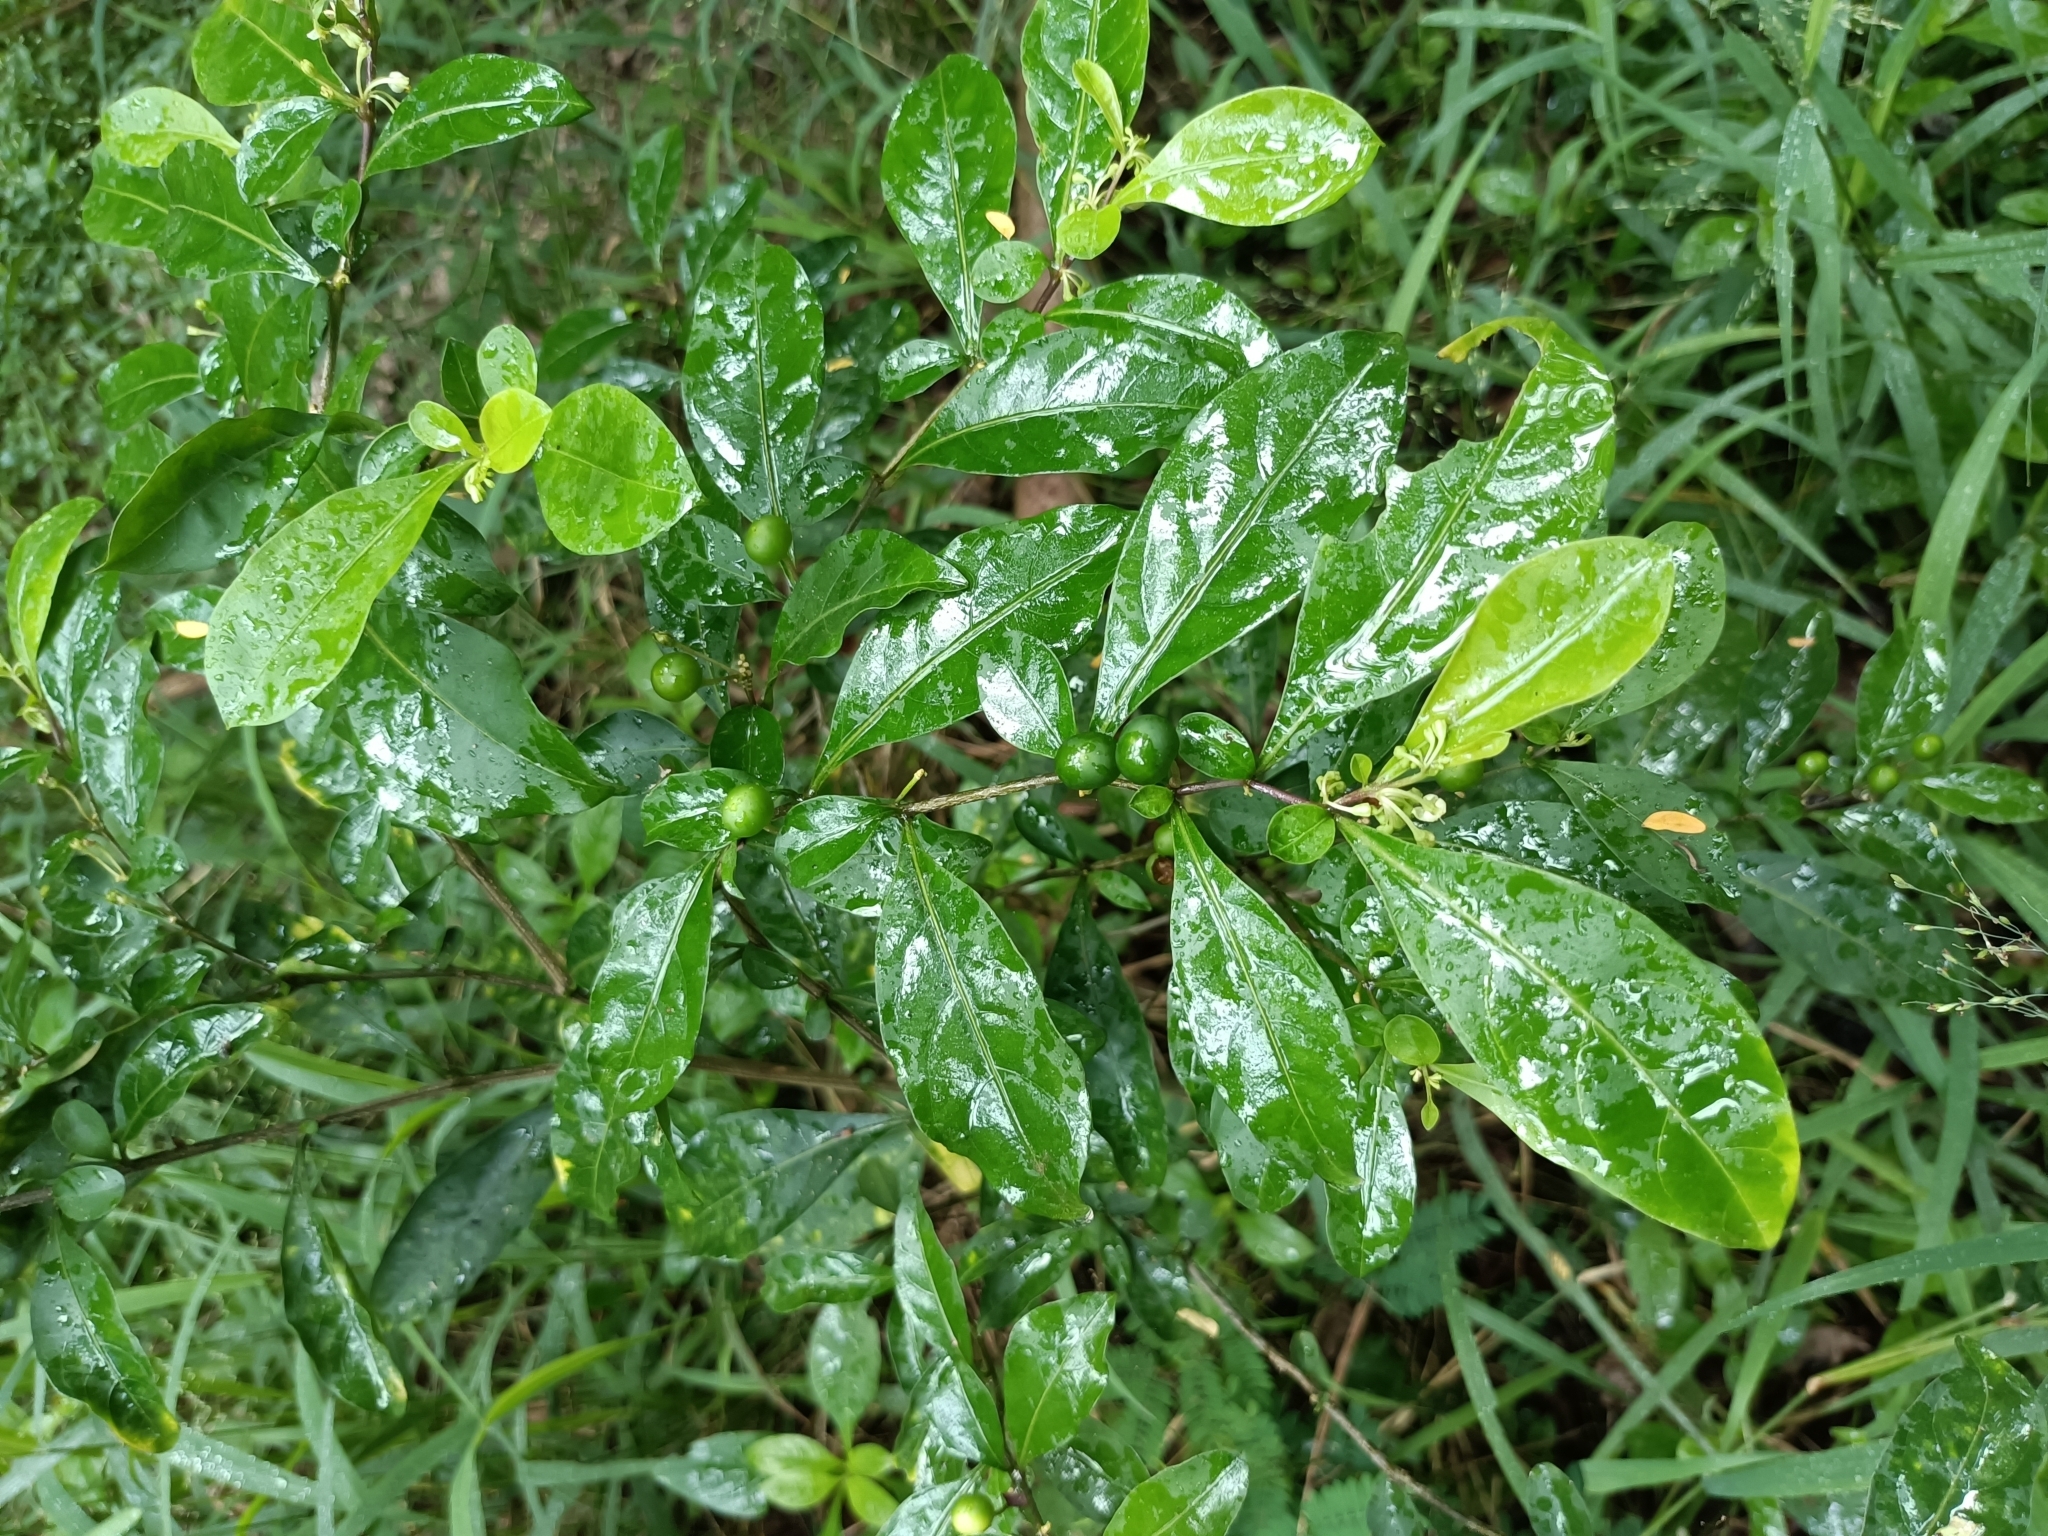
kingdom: Plantae
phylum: Tracheophyta
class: Magnoliopsida
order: Solanales
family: Solanaceae
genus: Solanum
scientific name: Solanum diphyllum
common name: Twoleaf nightshade
